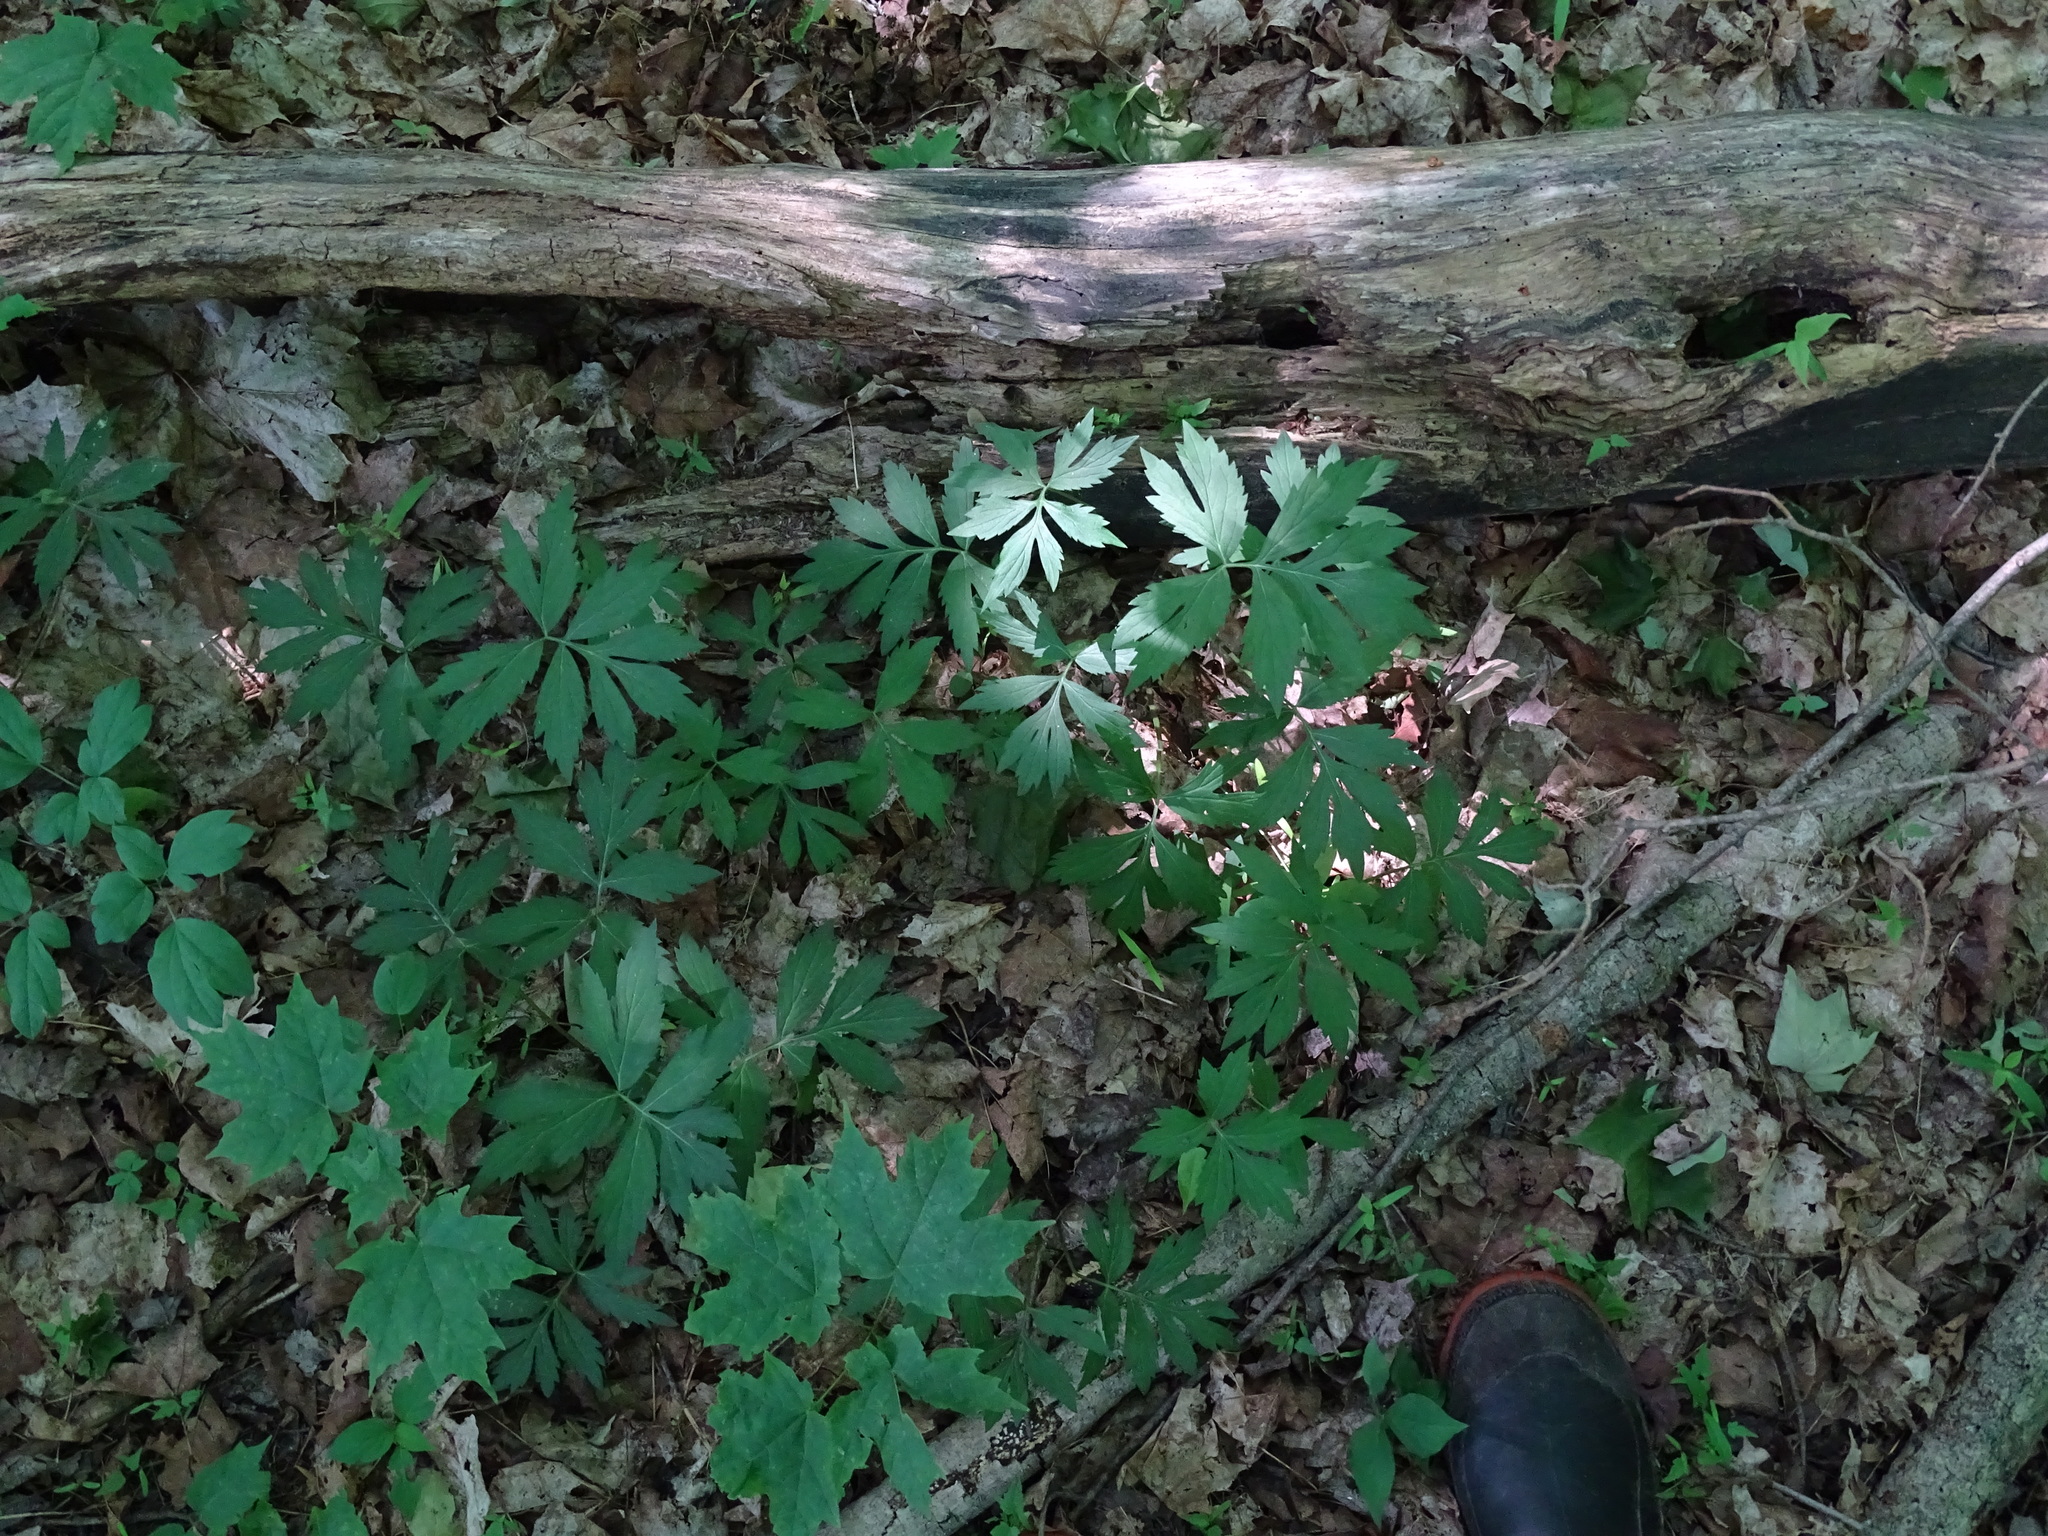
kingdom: Plantae
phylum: Tracheophyta
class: Magnoliopsida
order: Boraginales
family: Hydrophyllaceae
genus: Hydrophyllum
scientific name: Hydrophyllum virginianum
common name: Virginia waterleaf
